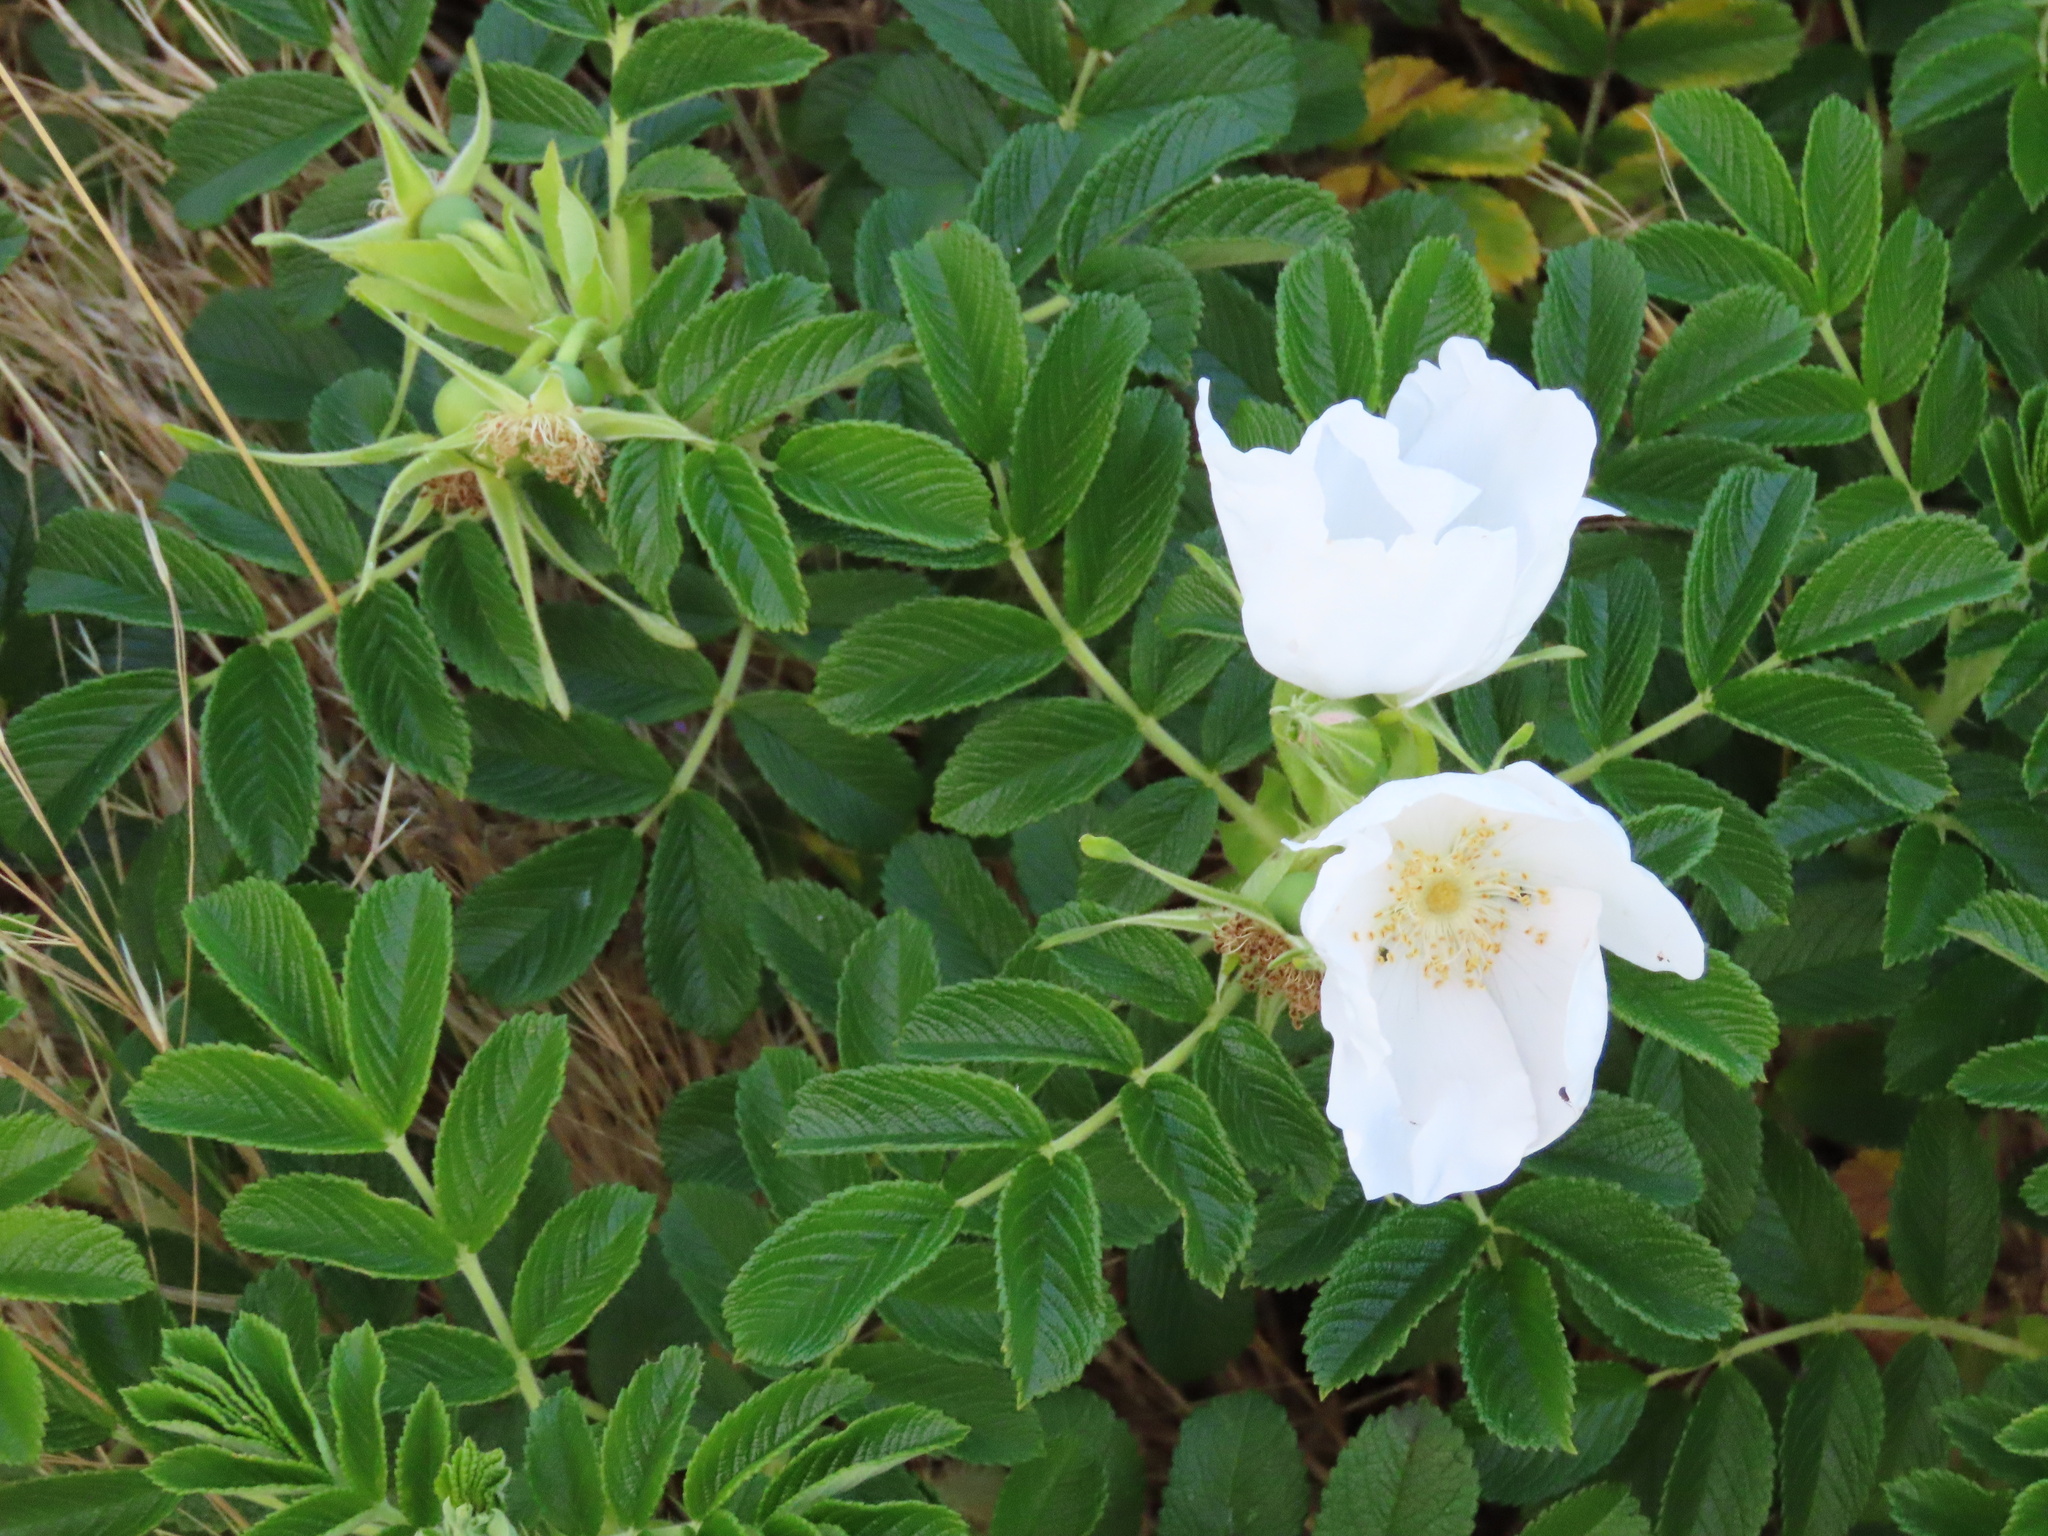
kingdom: Plantae
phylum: Tracheophyta
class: Magnoliopsida
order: Rosales
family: Rosaceae
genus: Rosa
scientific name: Rosa rugosa
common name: Japanese rose
